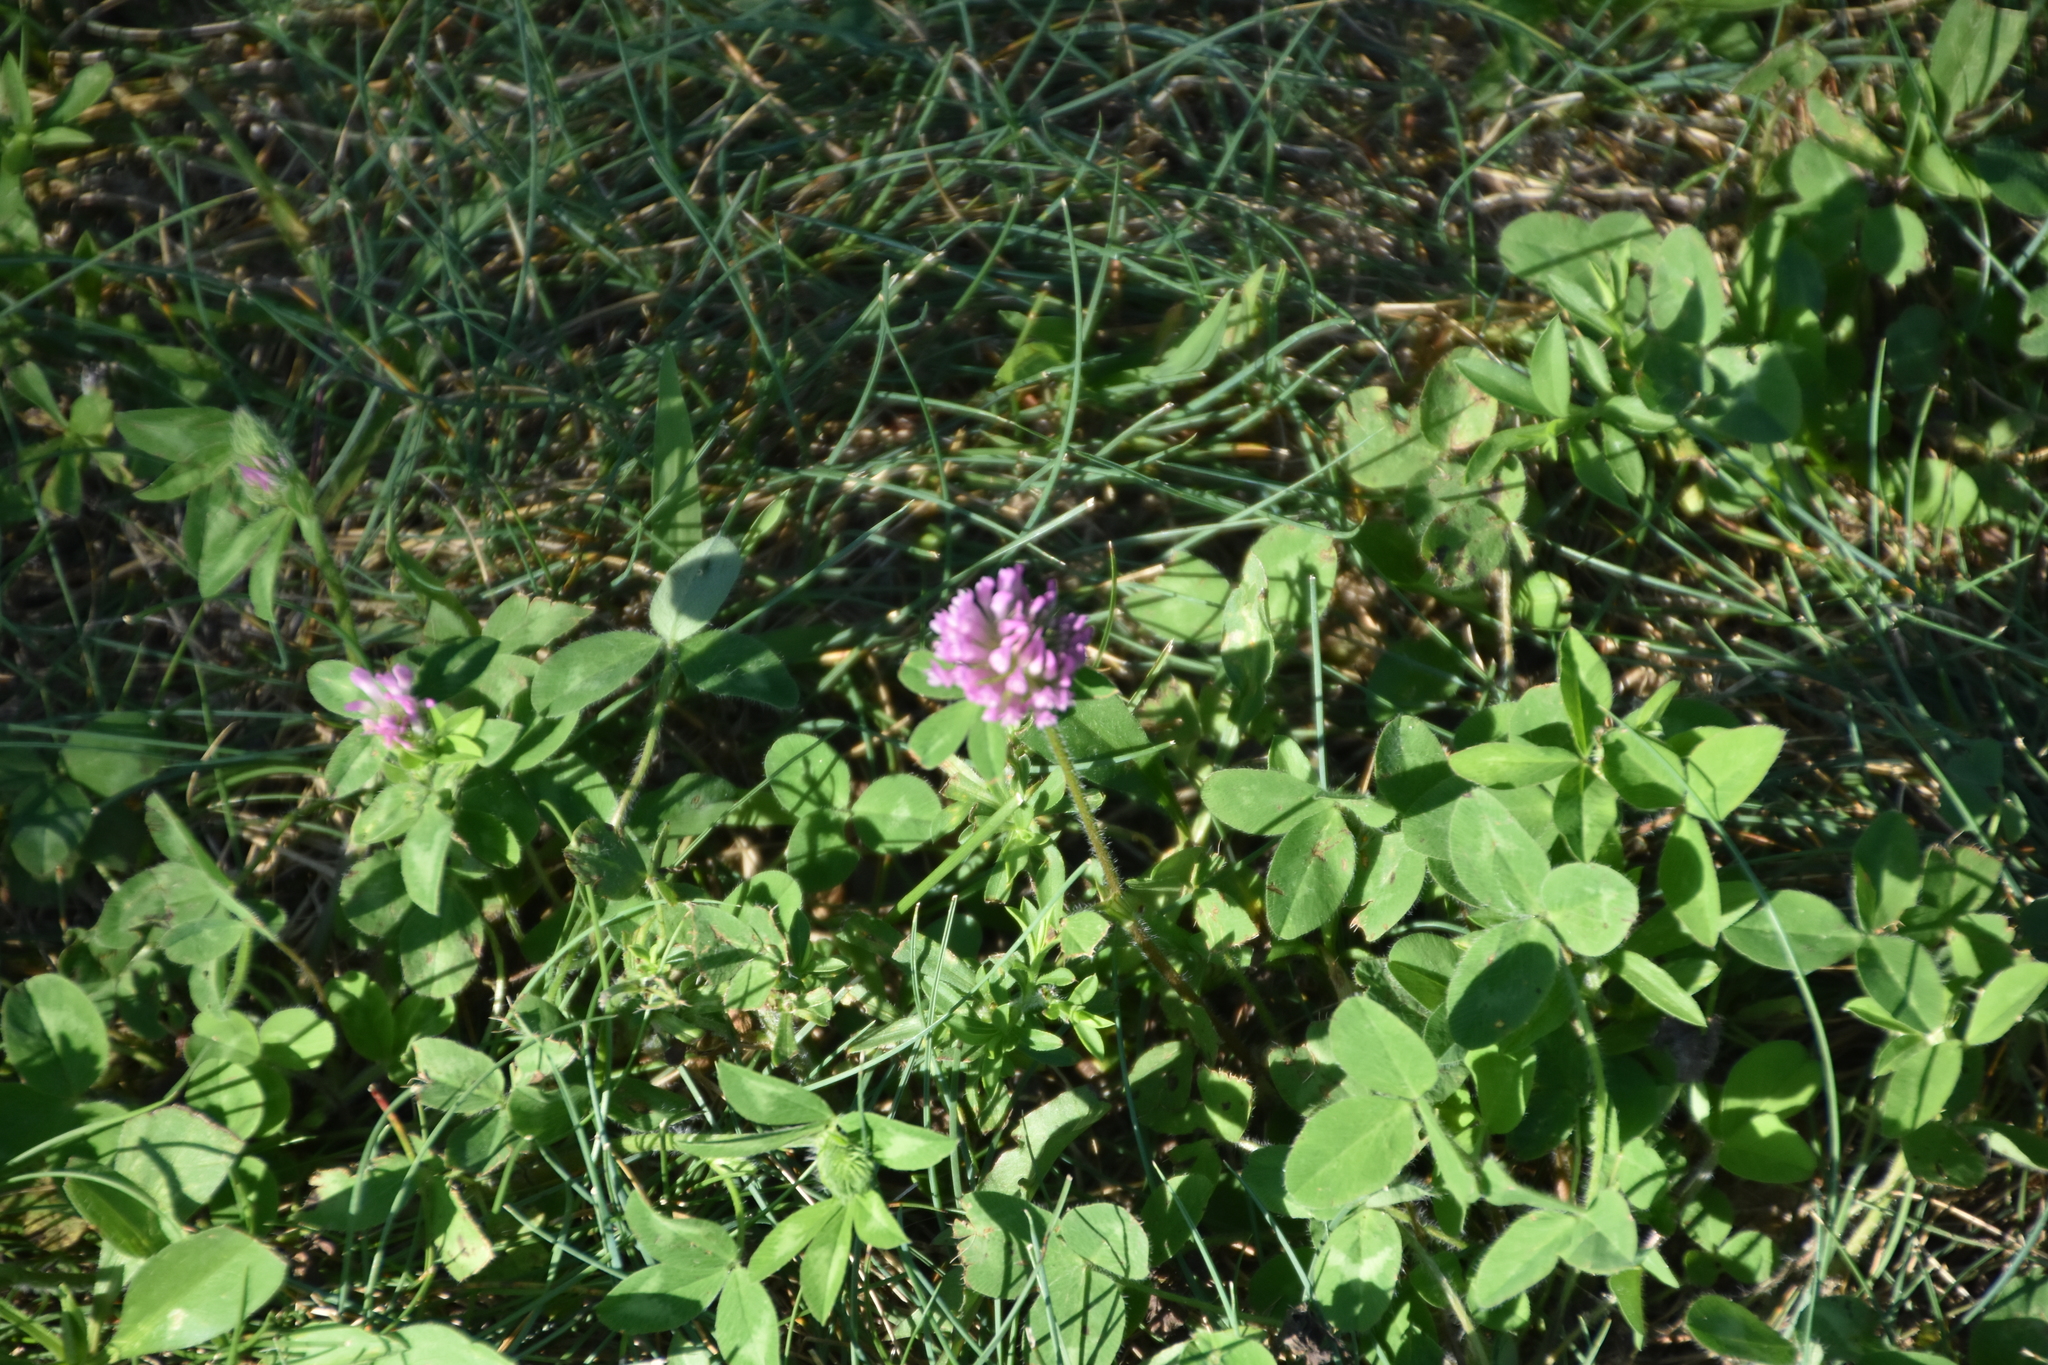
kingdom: Plantae
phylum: Tracheophyta
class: Magnoliopsida
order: Fabales
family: Fabaceae
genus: Trifolium
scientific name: Trifolium pratense
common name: Red clover
